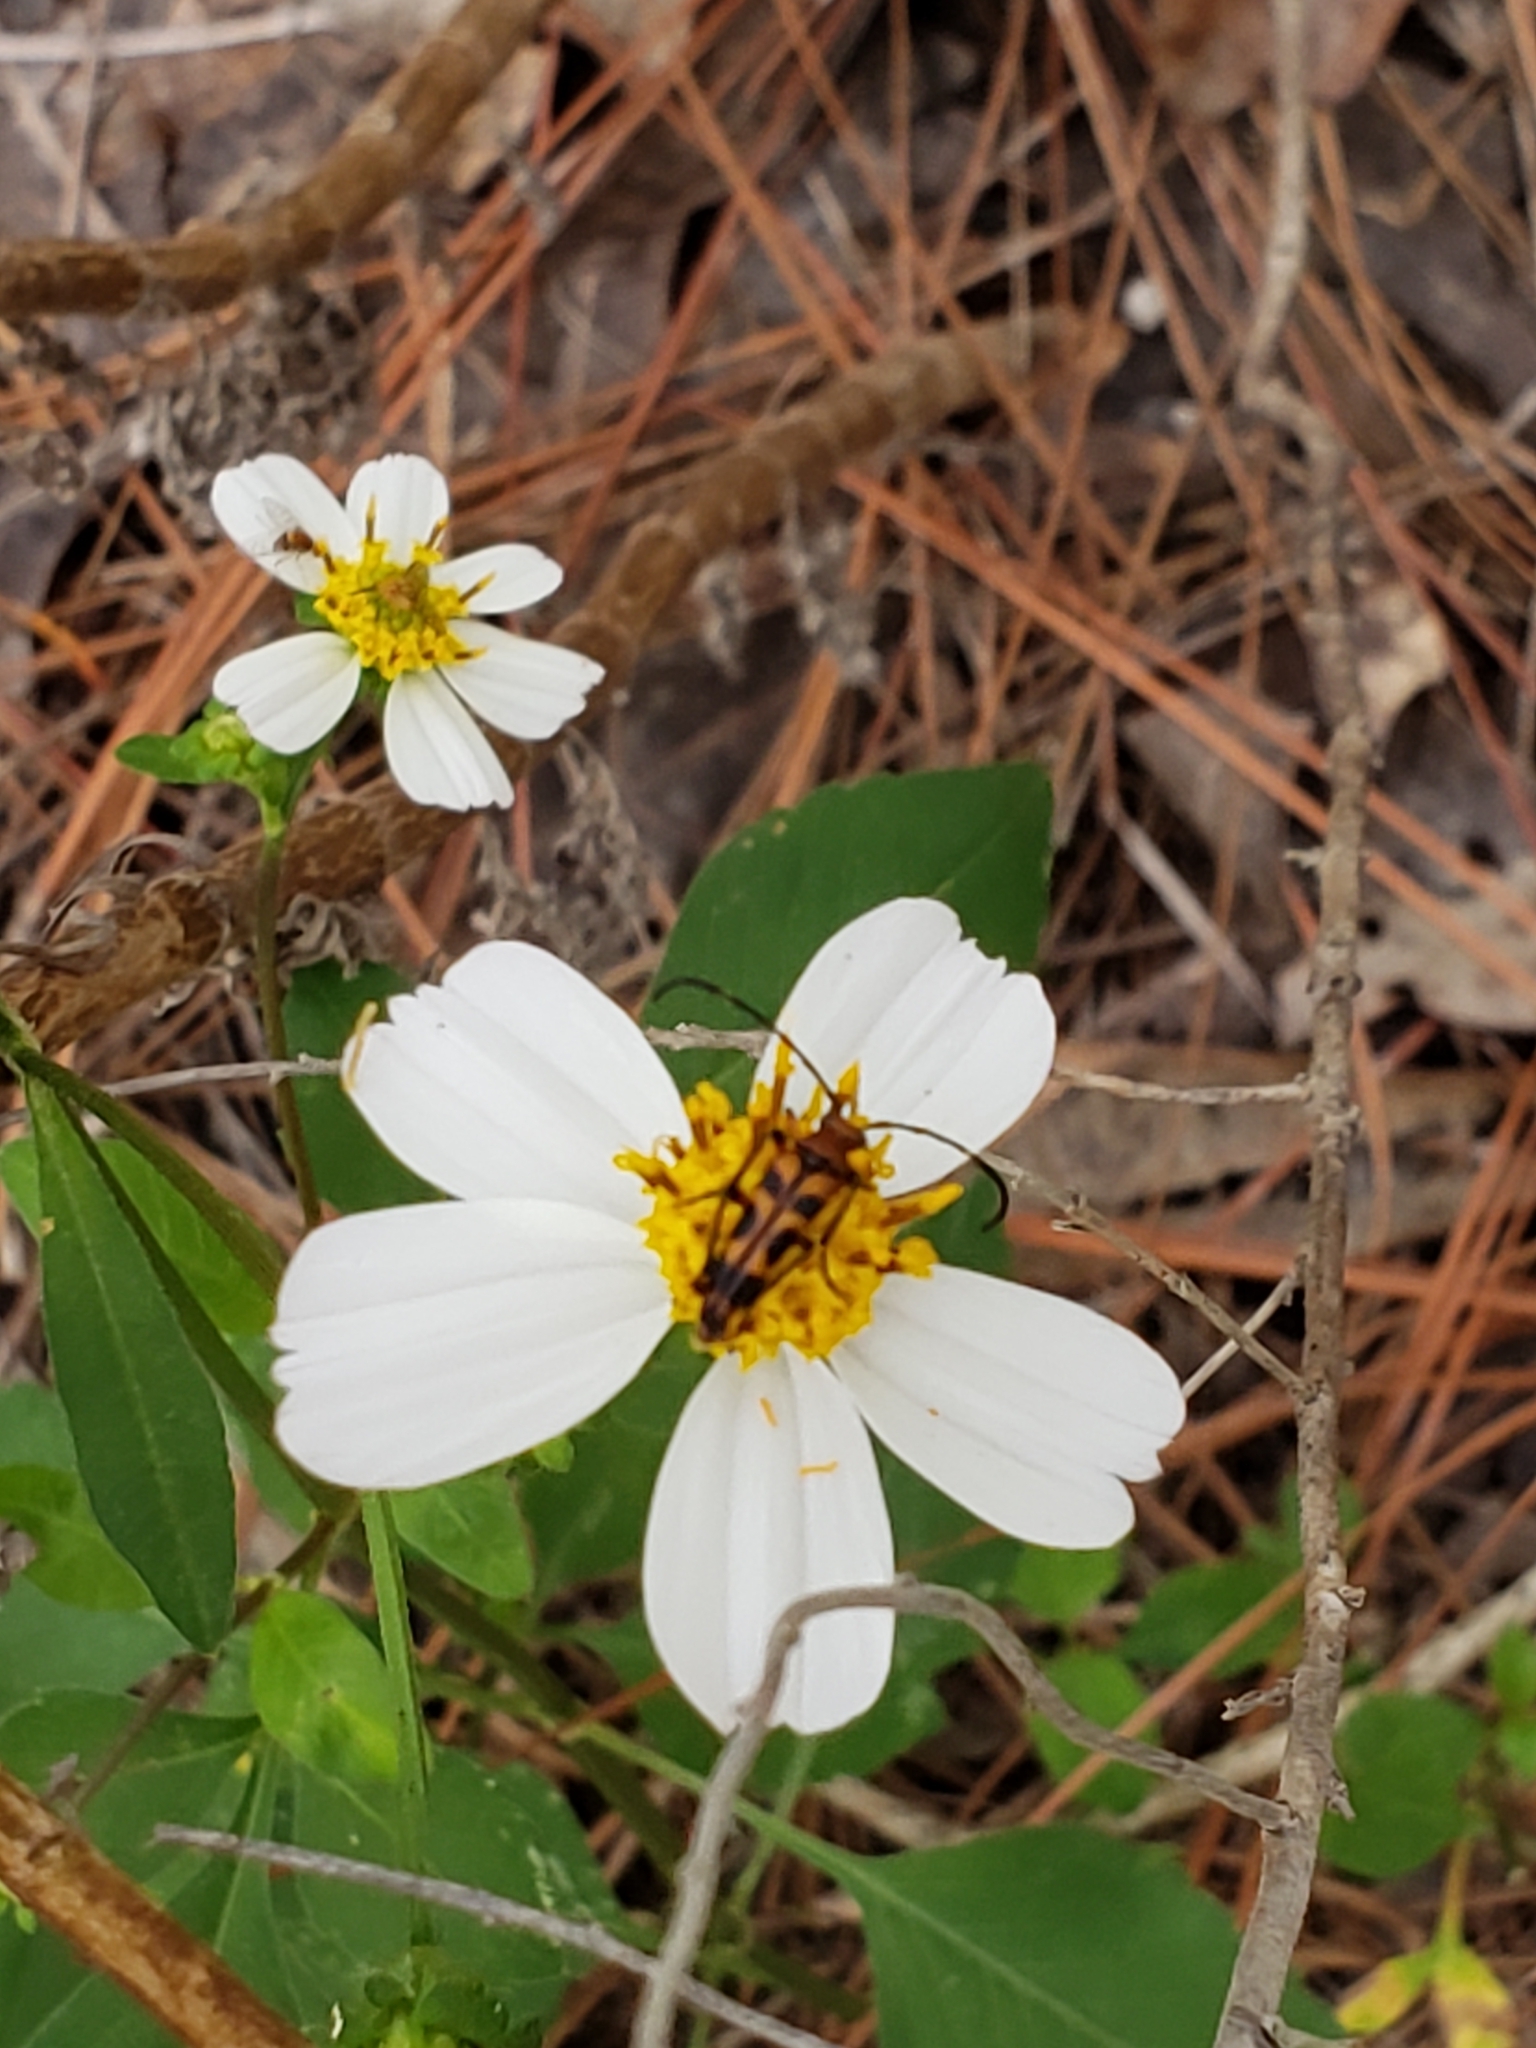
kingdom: Animalia
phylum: Arthropoda
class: Insecta
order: Coleoptera
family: Cerambycidae
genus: Strangalia
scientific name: Strangalia sexnotata
